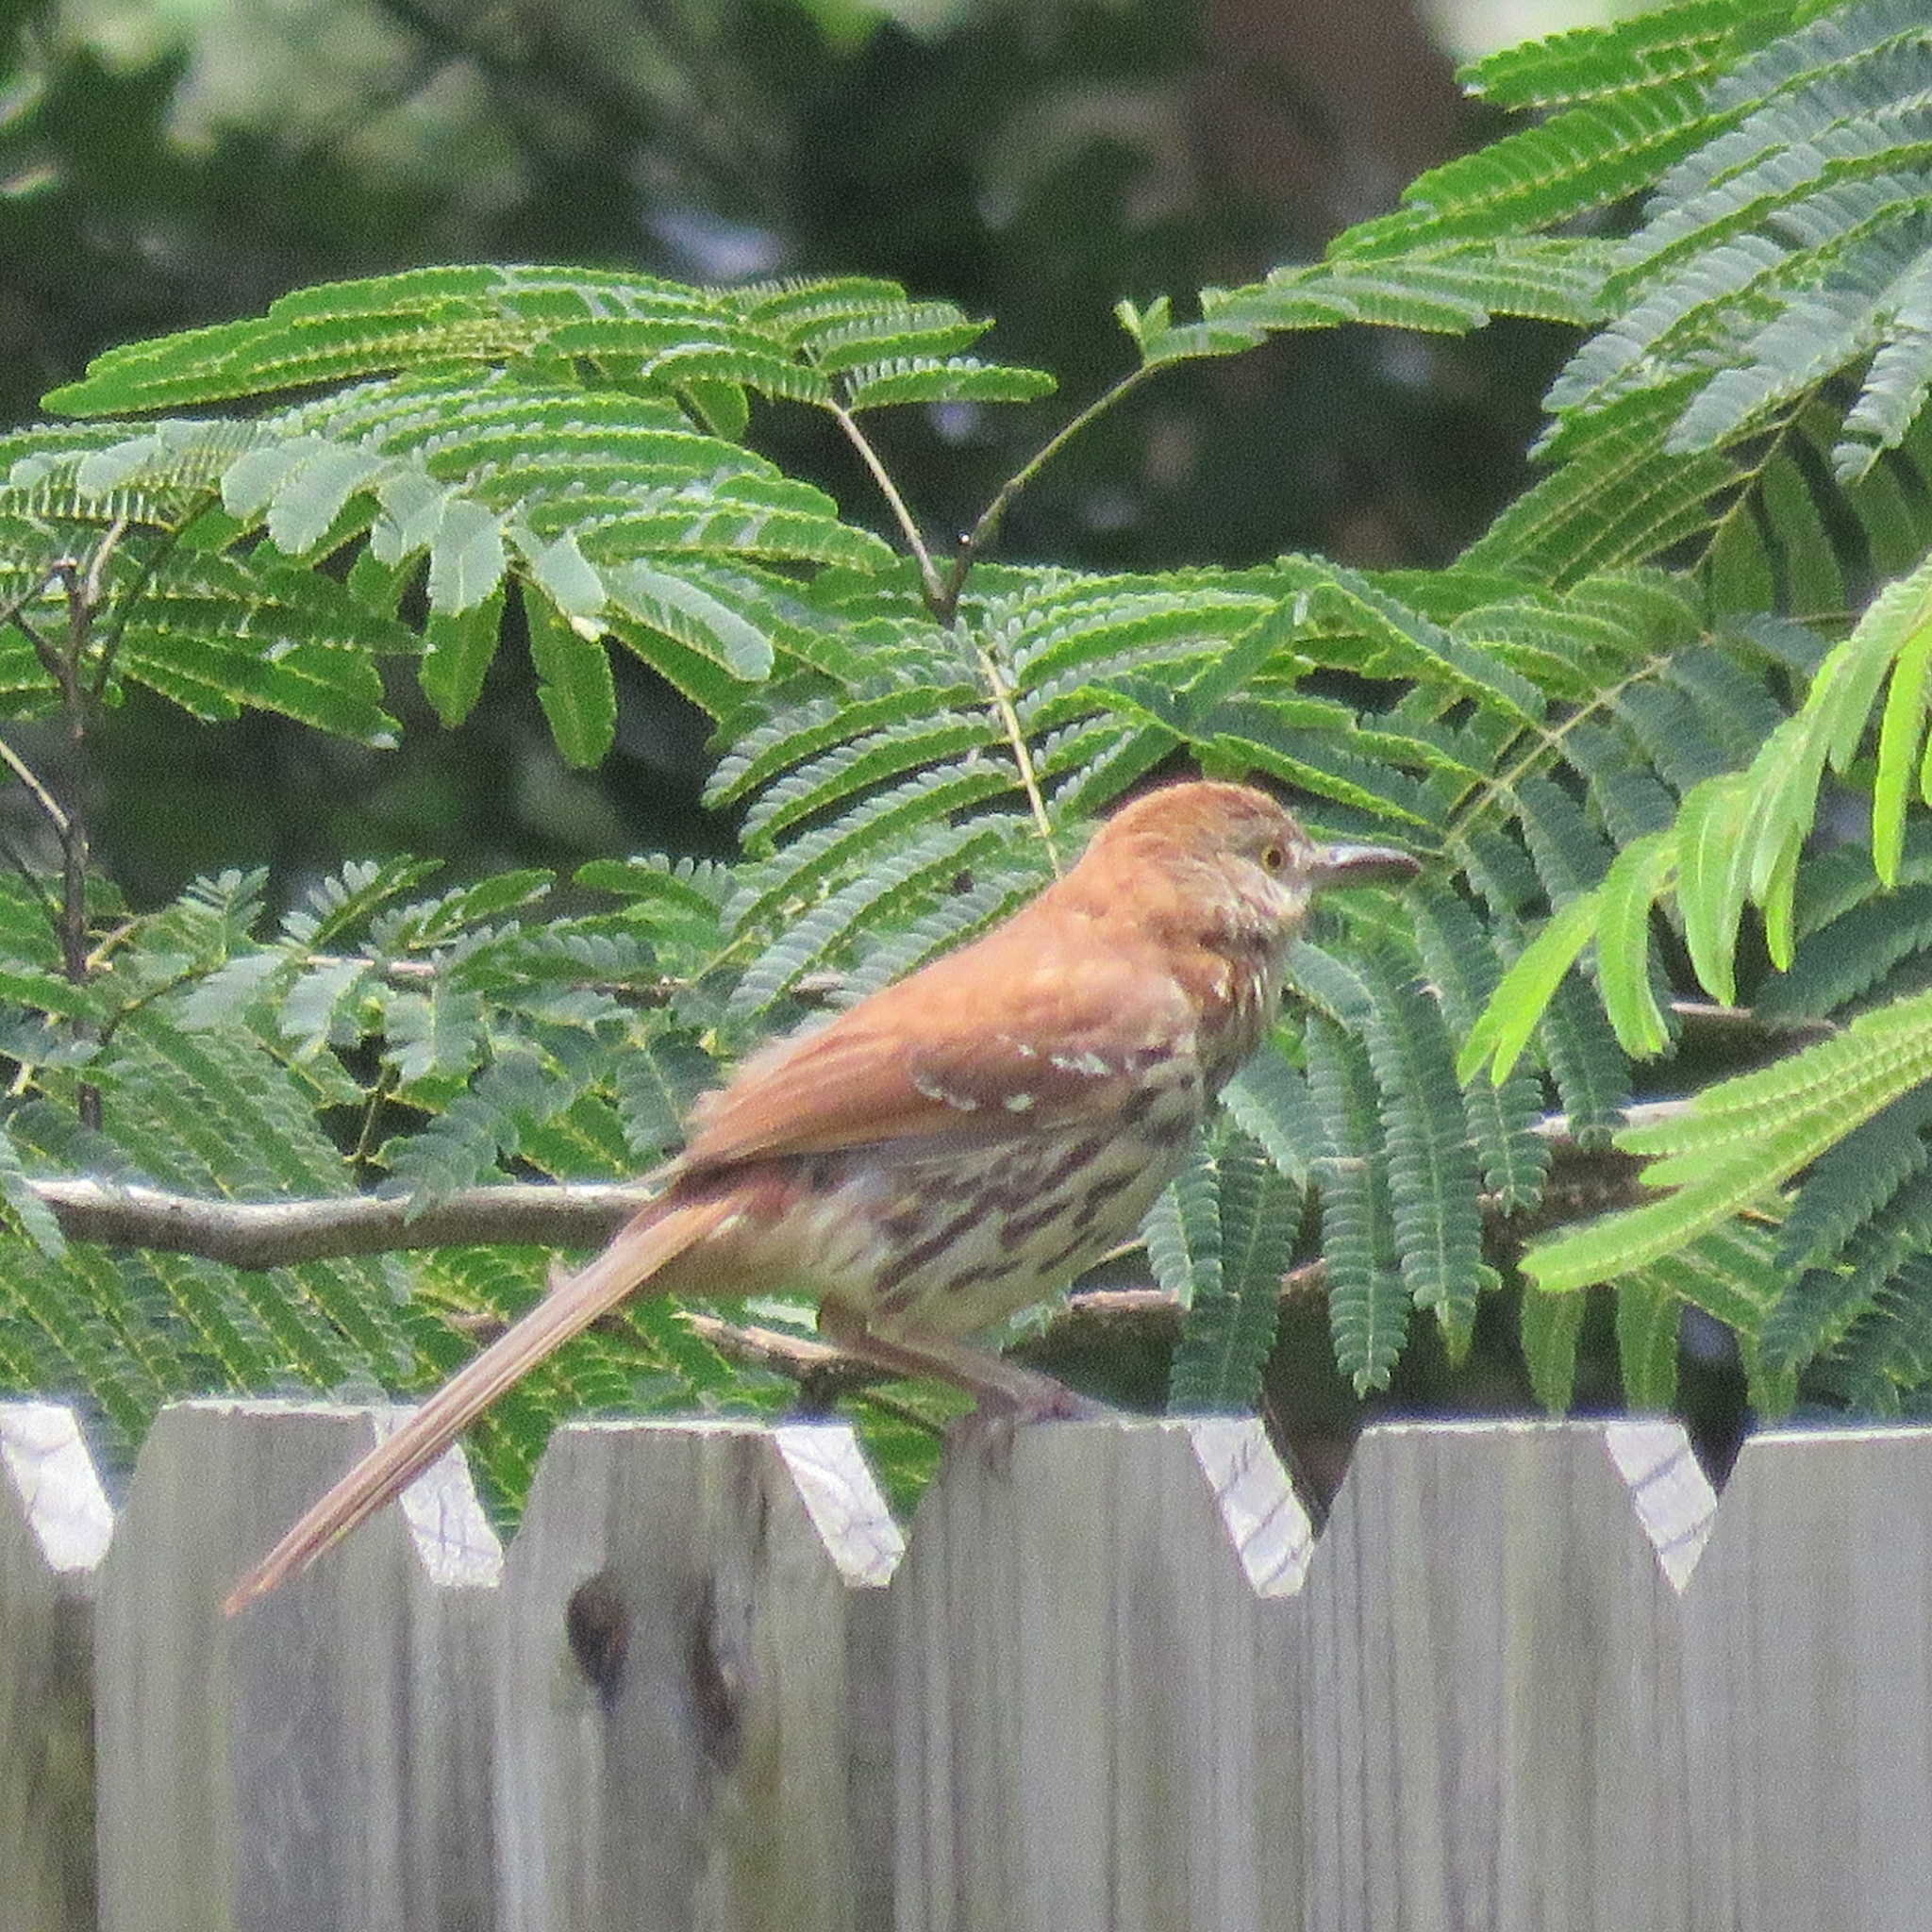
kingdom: Animalia
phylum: Chordata
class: Aves
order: Passeriformes
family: Mimidae
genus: Toxostoma
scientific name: Toxostoma rufum
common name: Brown thrasher
